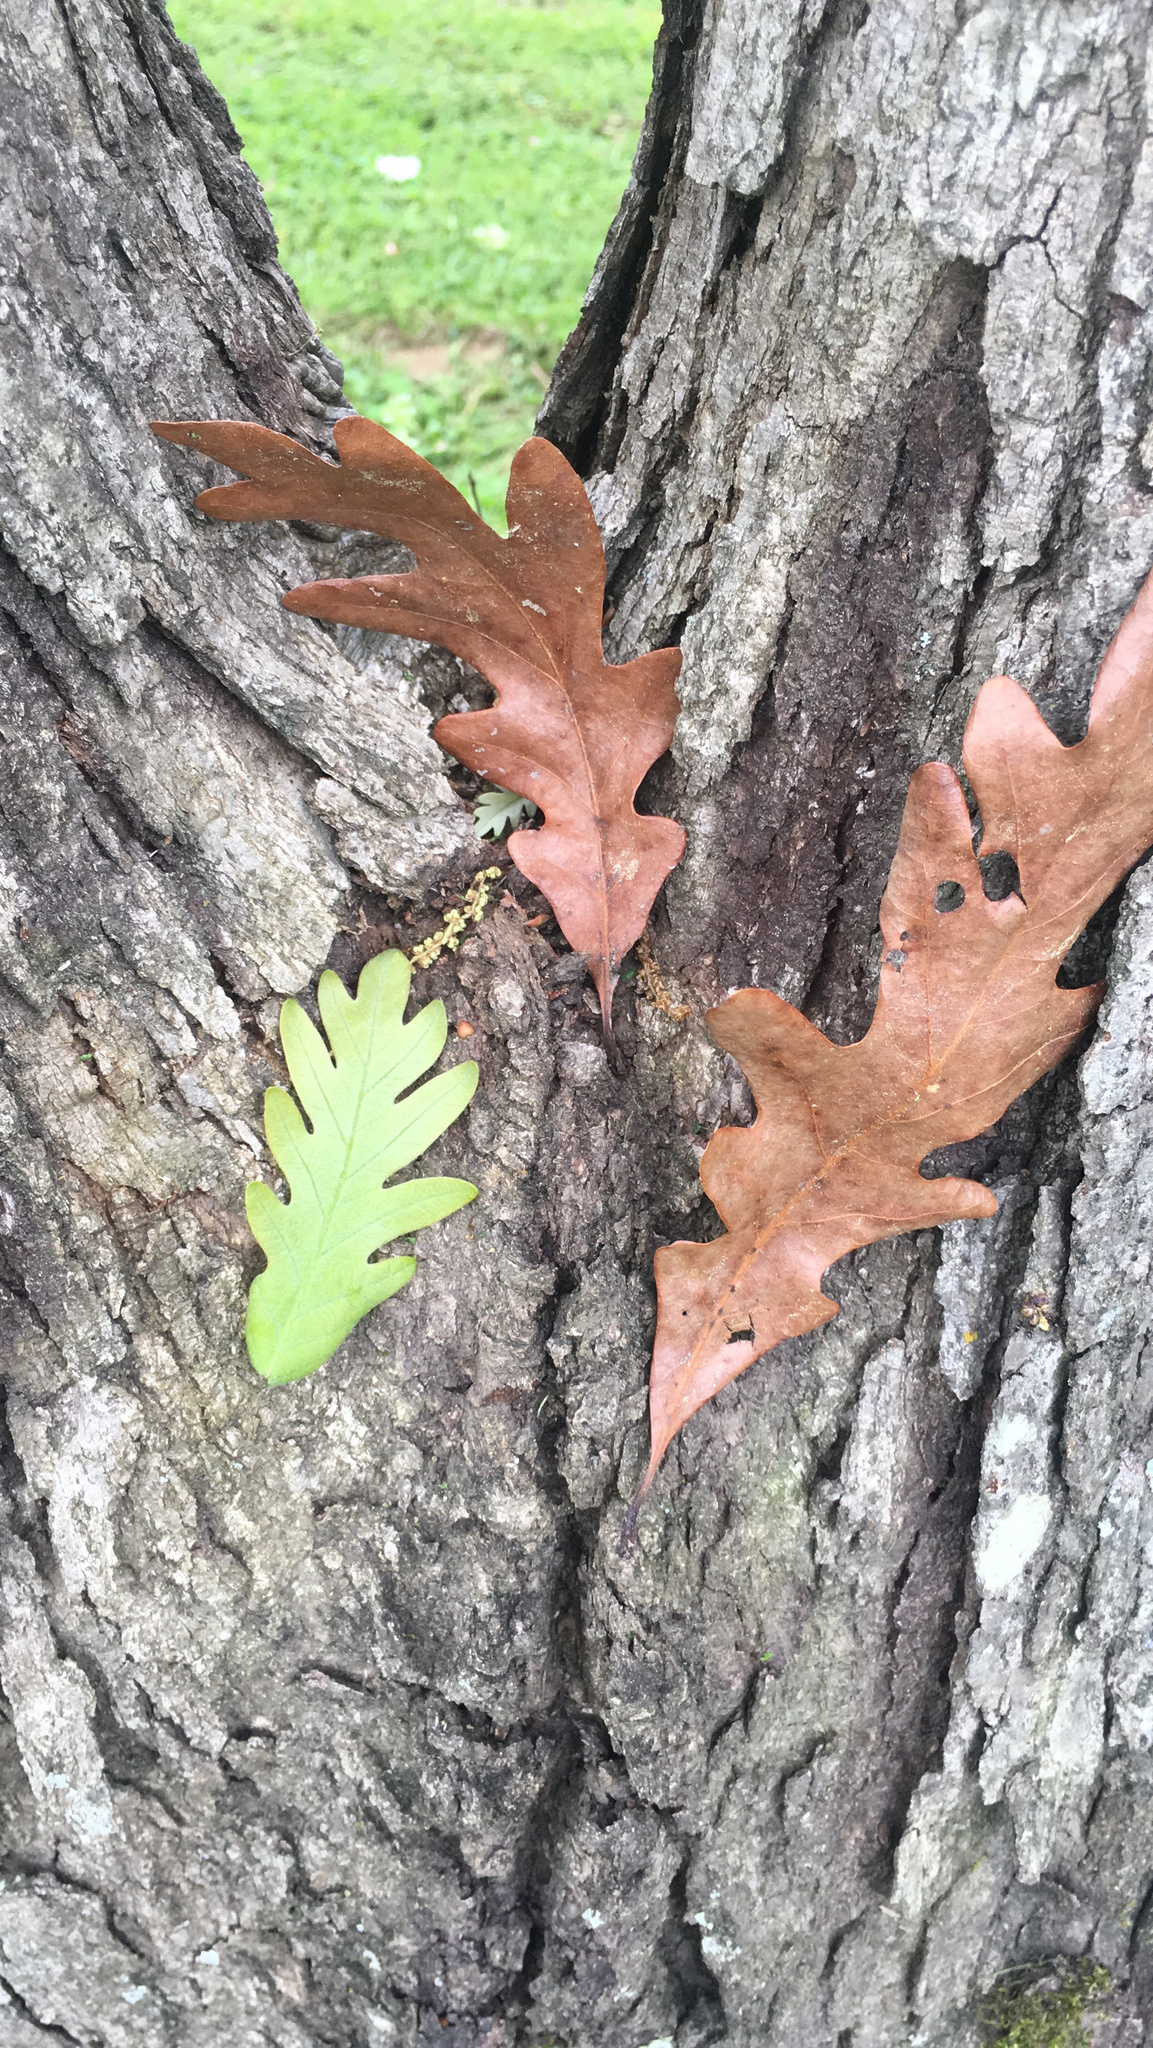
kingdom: Plantae
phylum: Tracheophyta
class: Magnoliopsida
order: Fagales
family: Fagaceae
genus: Quercus
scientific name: Quercus alba
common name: White oak
